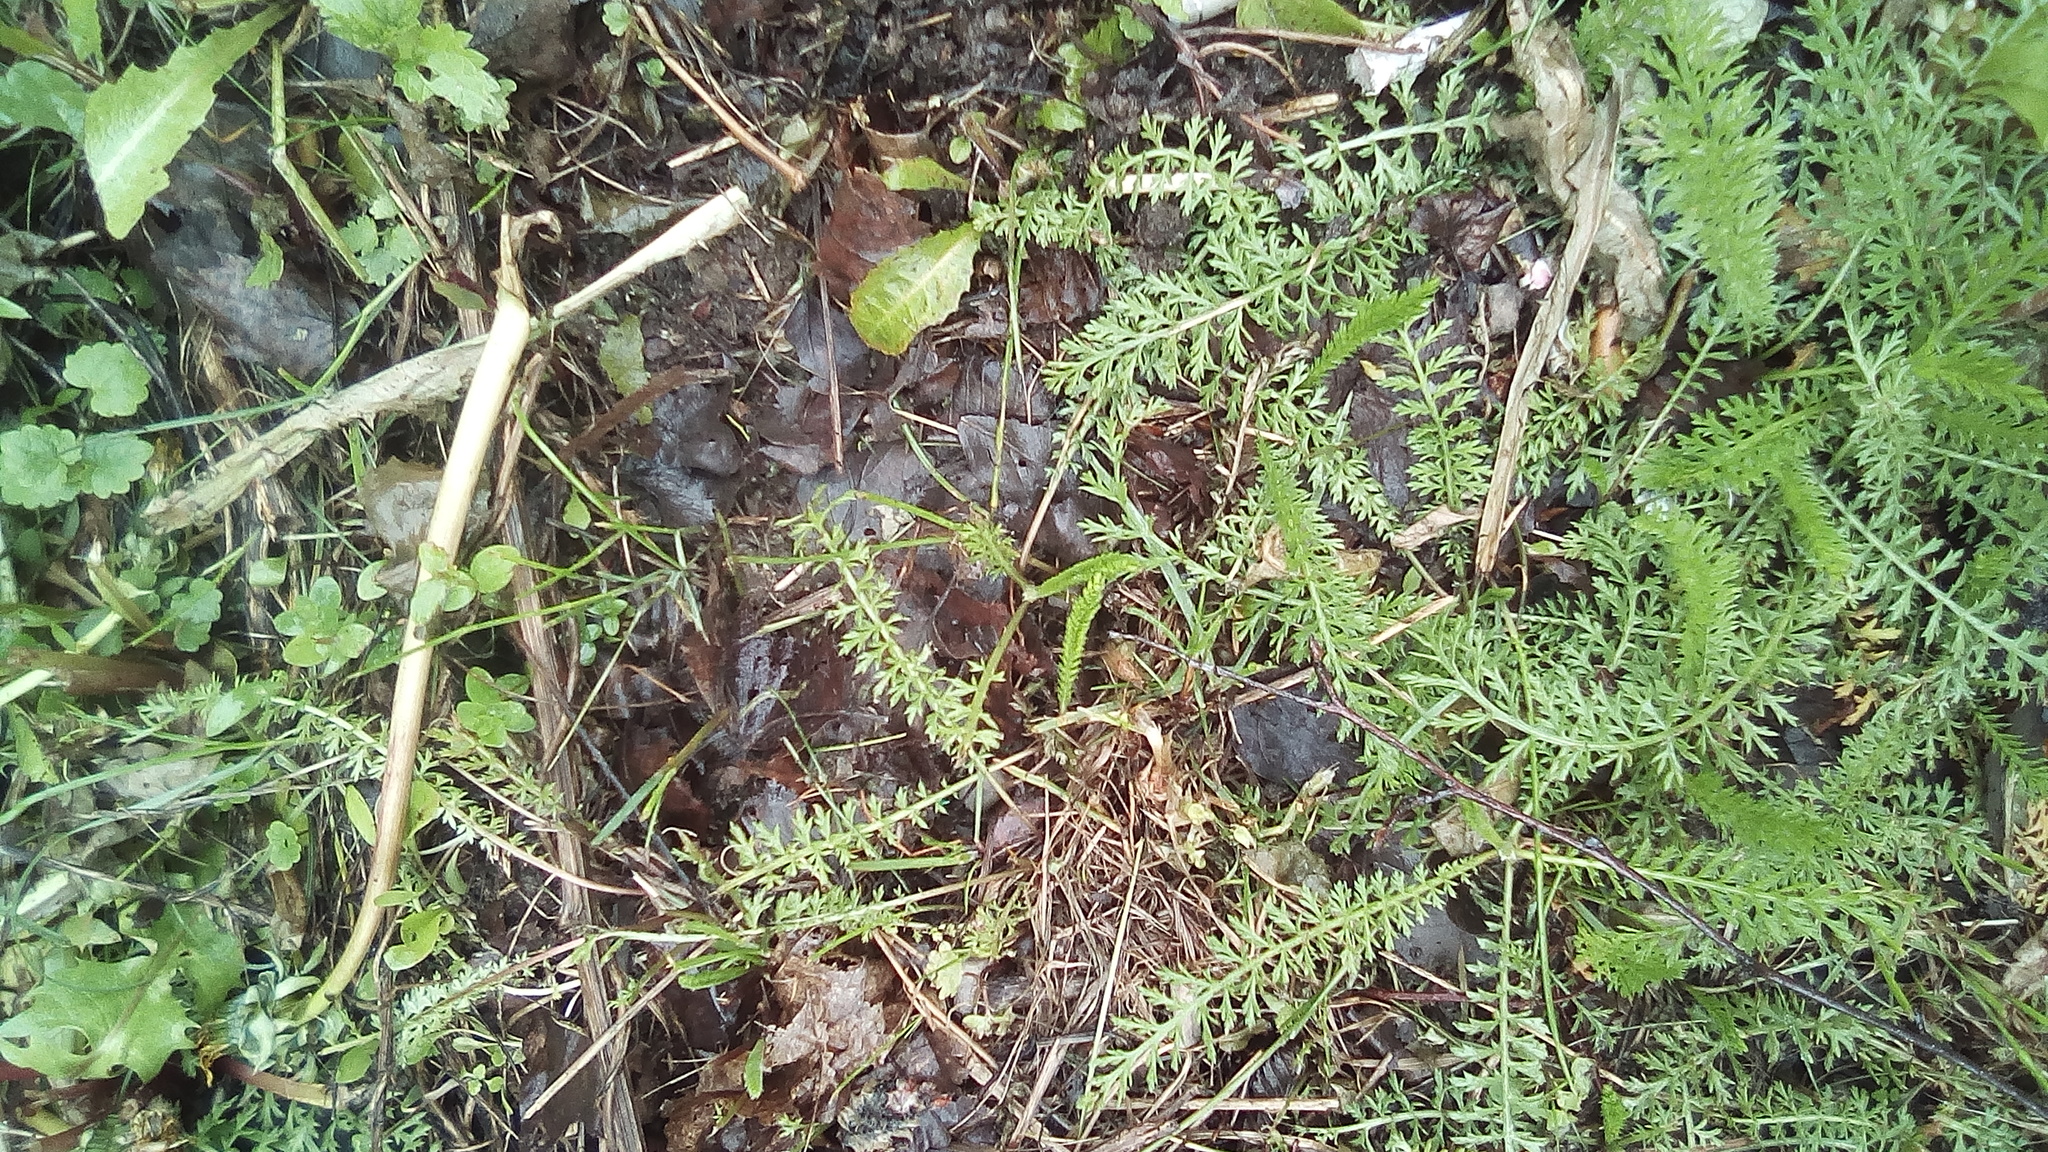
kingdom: Plantae
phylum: Tracheophyta
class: Magnoliopsida
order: Asterales
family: Asteraceae
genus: Achillea
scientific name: Achillea millefolium
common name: Yarrow
